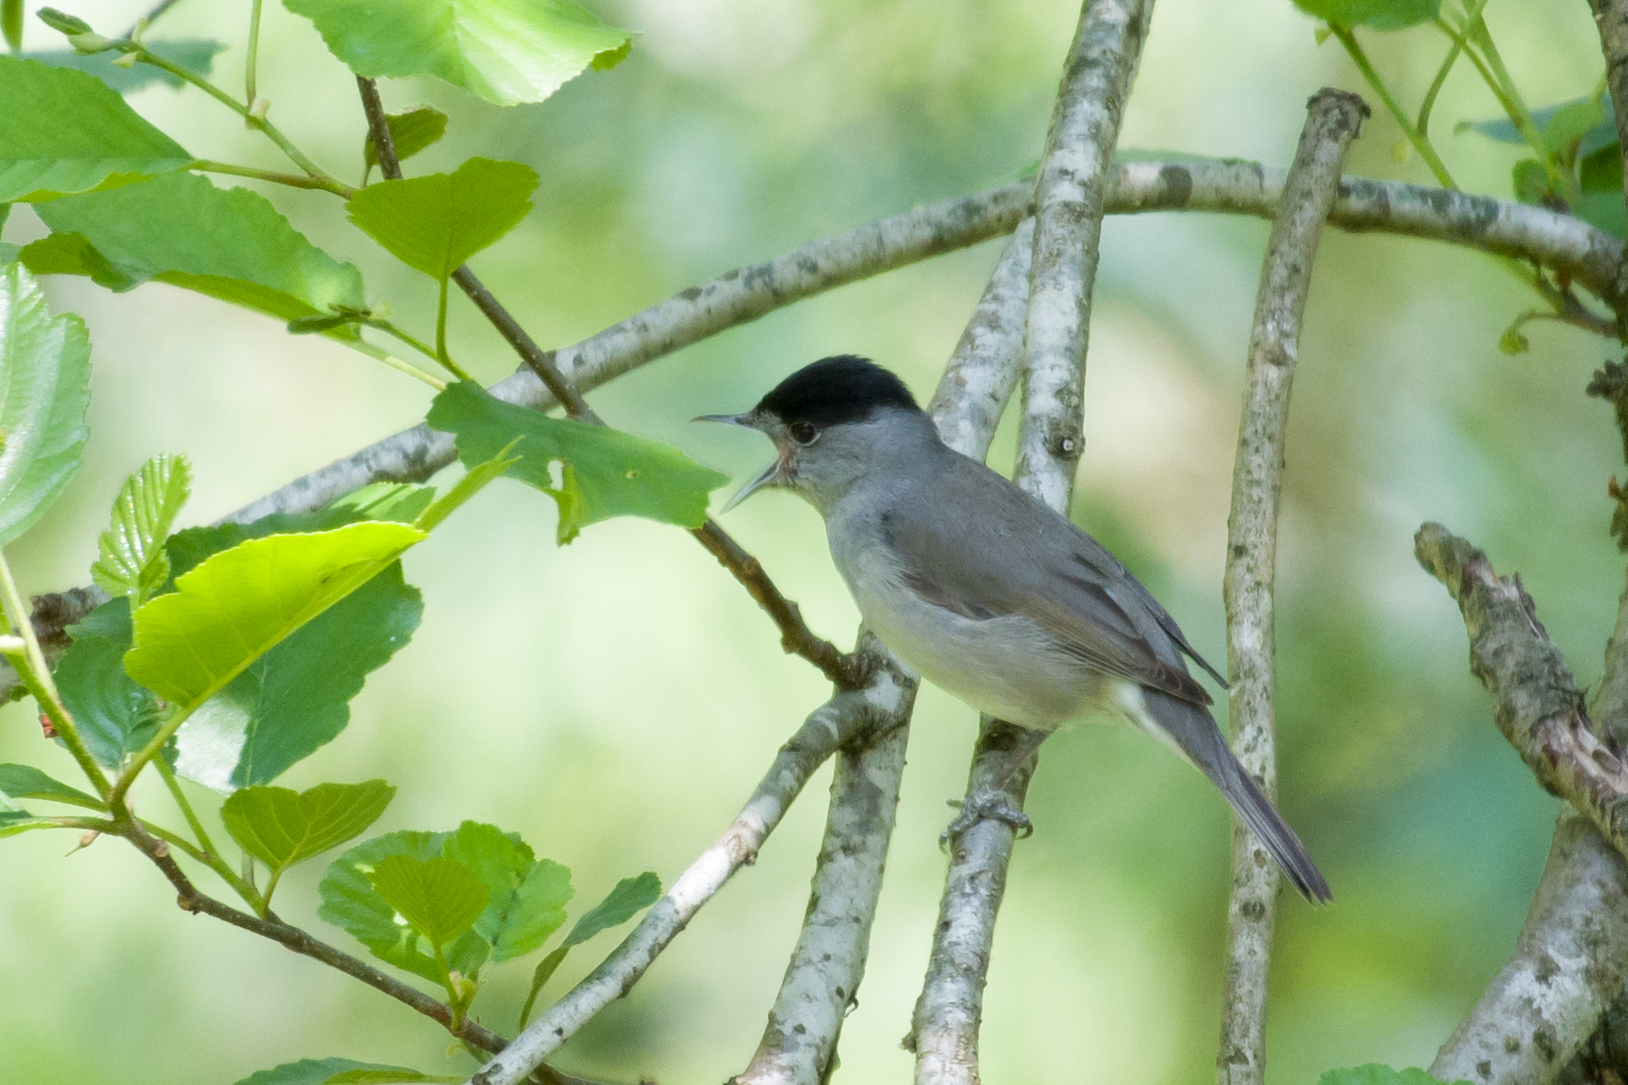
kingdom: Animalia
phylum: Chordata
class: Aves
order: Passeriformes
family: Sylviidae
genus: Sylvia
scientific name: Sylvia atricapilla
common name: Eurasian blackcap
